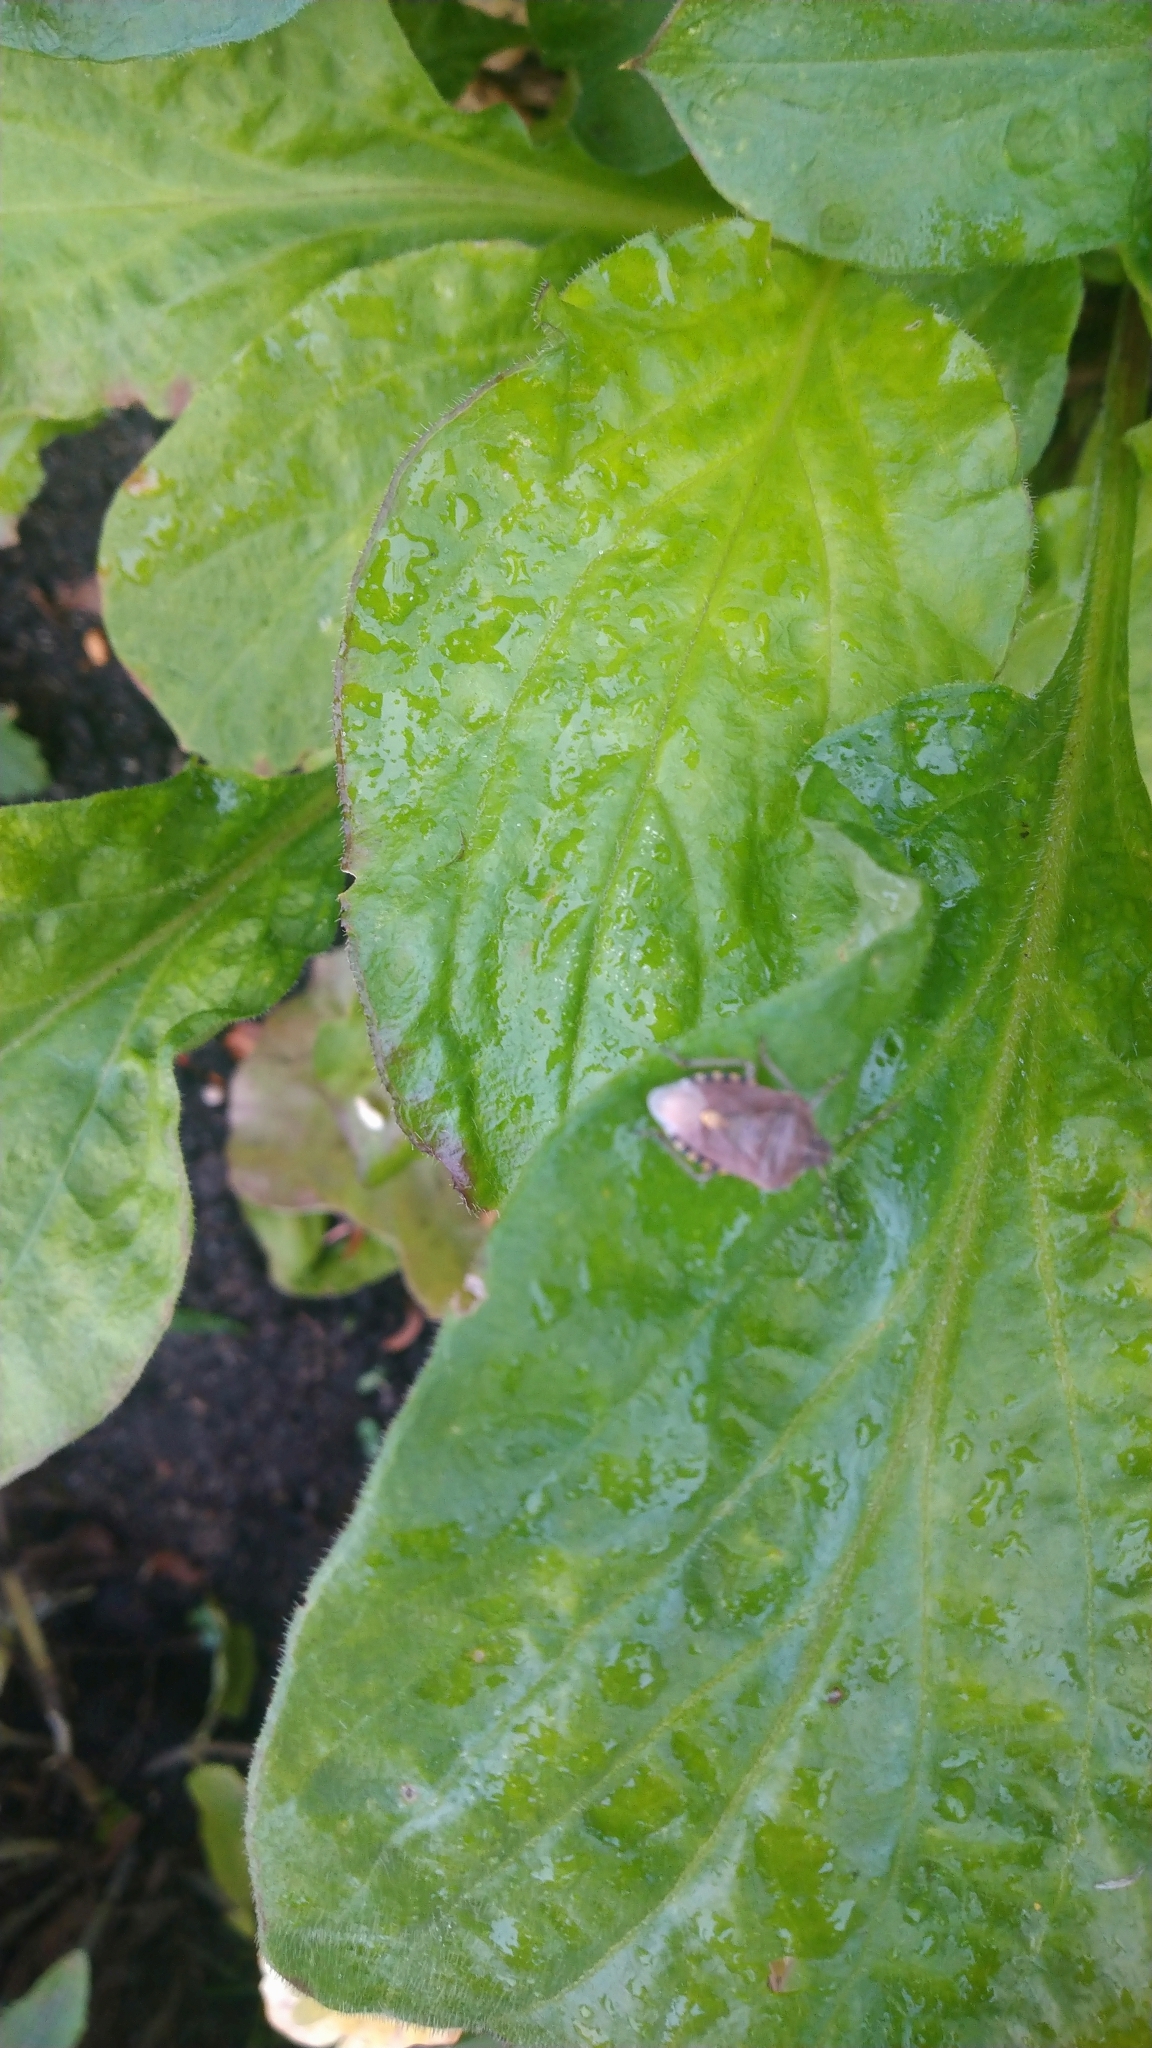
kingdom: Animalia
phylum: Arthropoda
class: Insecta
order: Hemiptera
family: Pentatomidae
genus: Dolycoris
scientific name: Dolycoris baccarum
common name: Sloe bug
